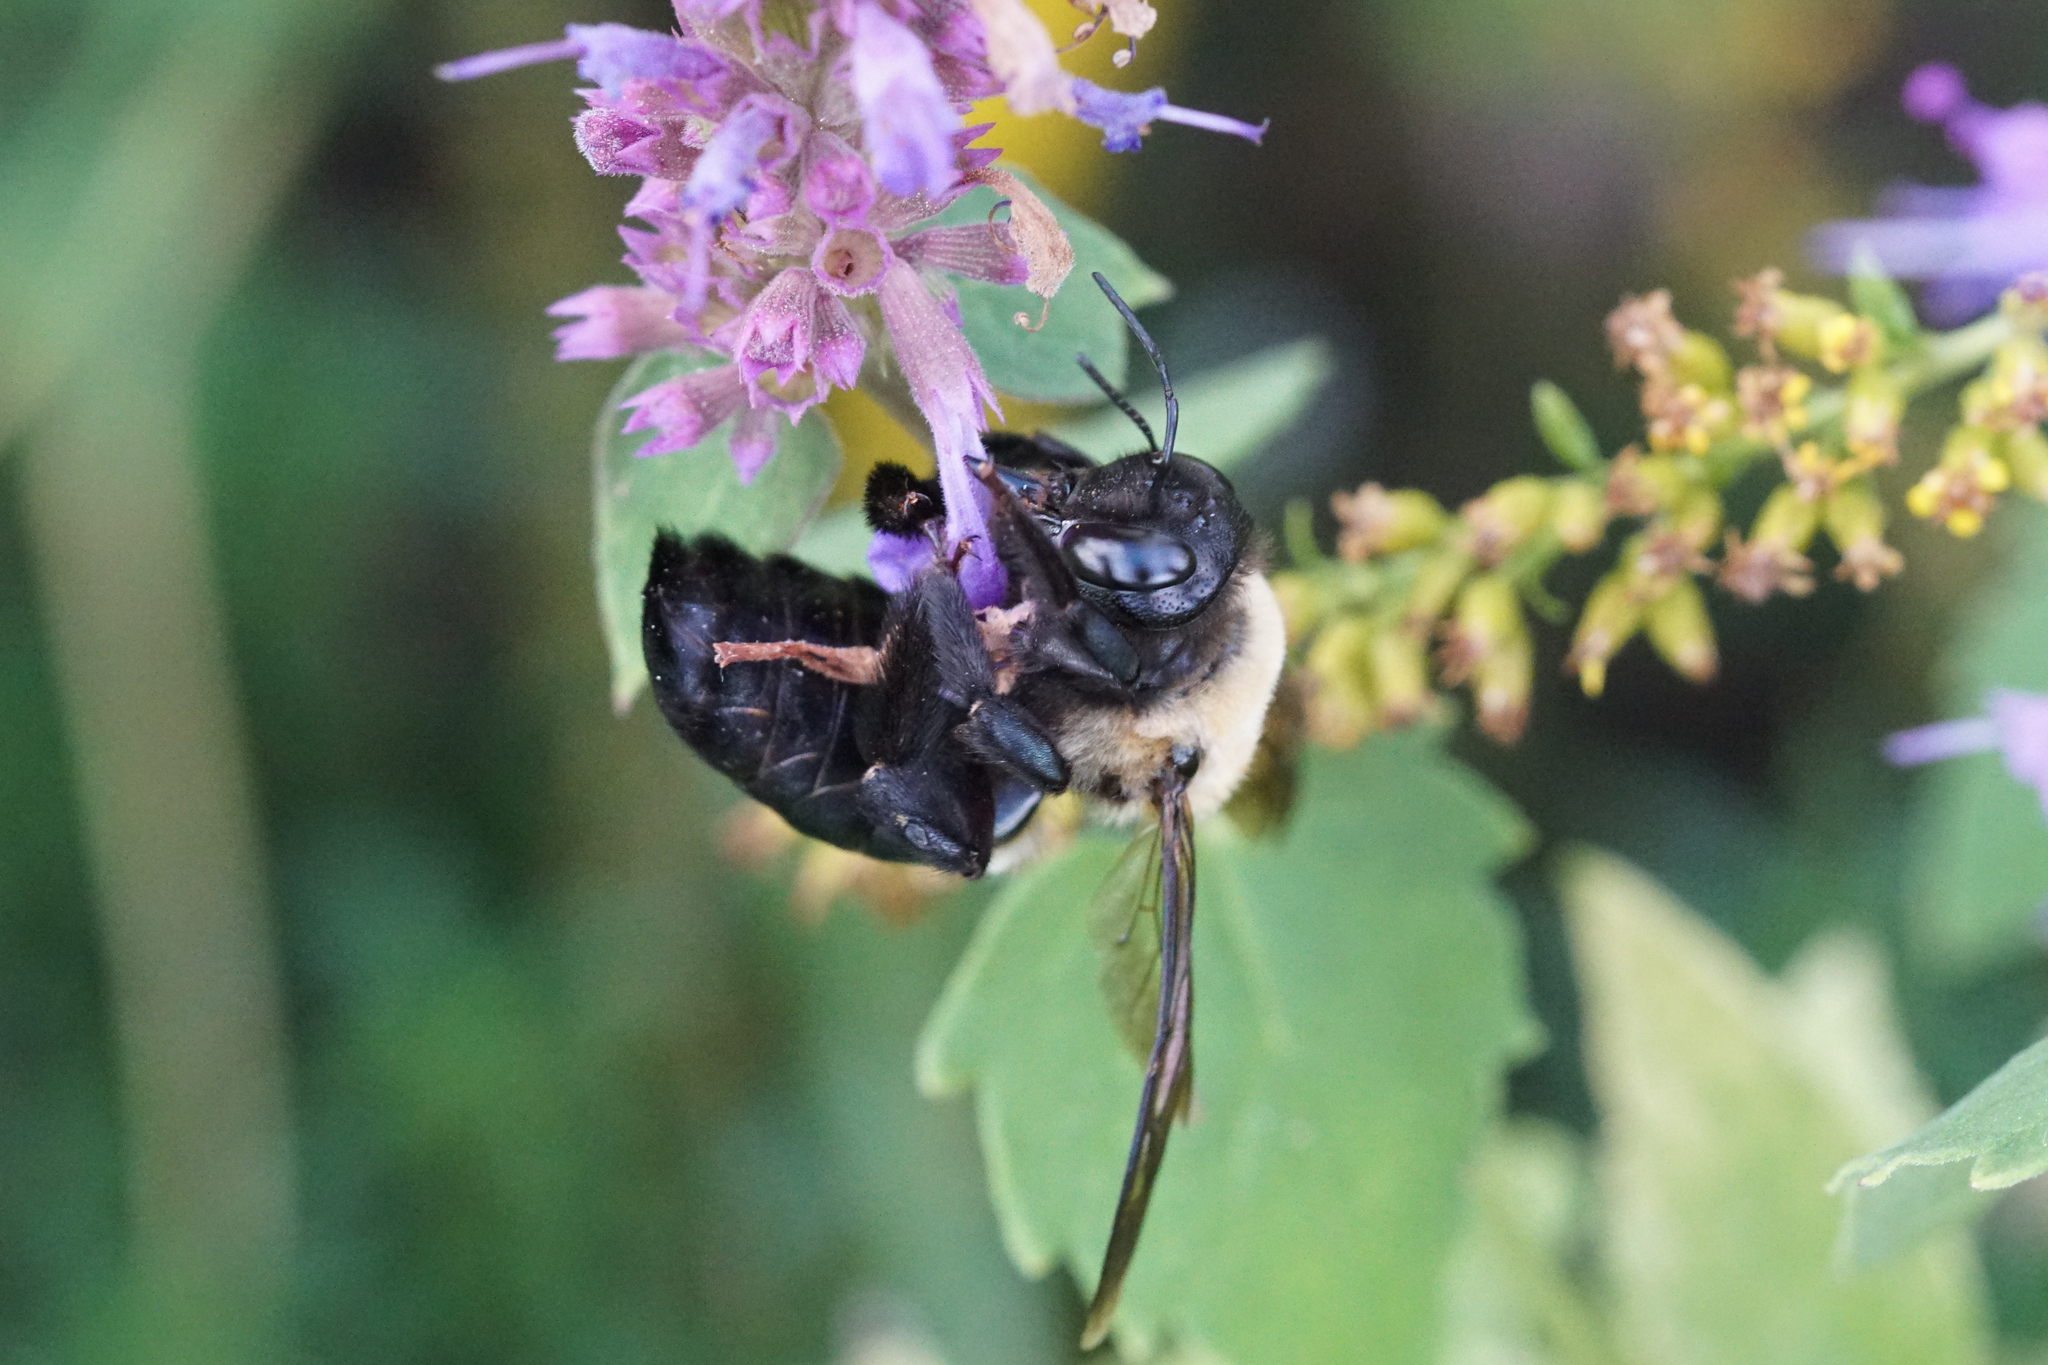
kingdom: Animalia
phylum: Arthropoda
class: Insecta
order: Hymenoptera
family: Apidae
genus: Xylocopa
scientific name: Xylocopa virginica
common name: Carpenter bee
